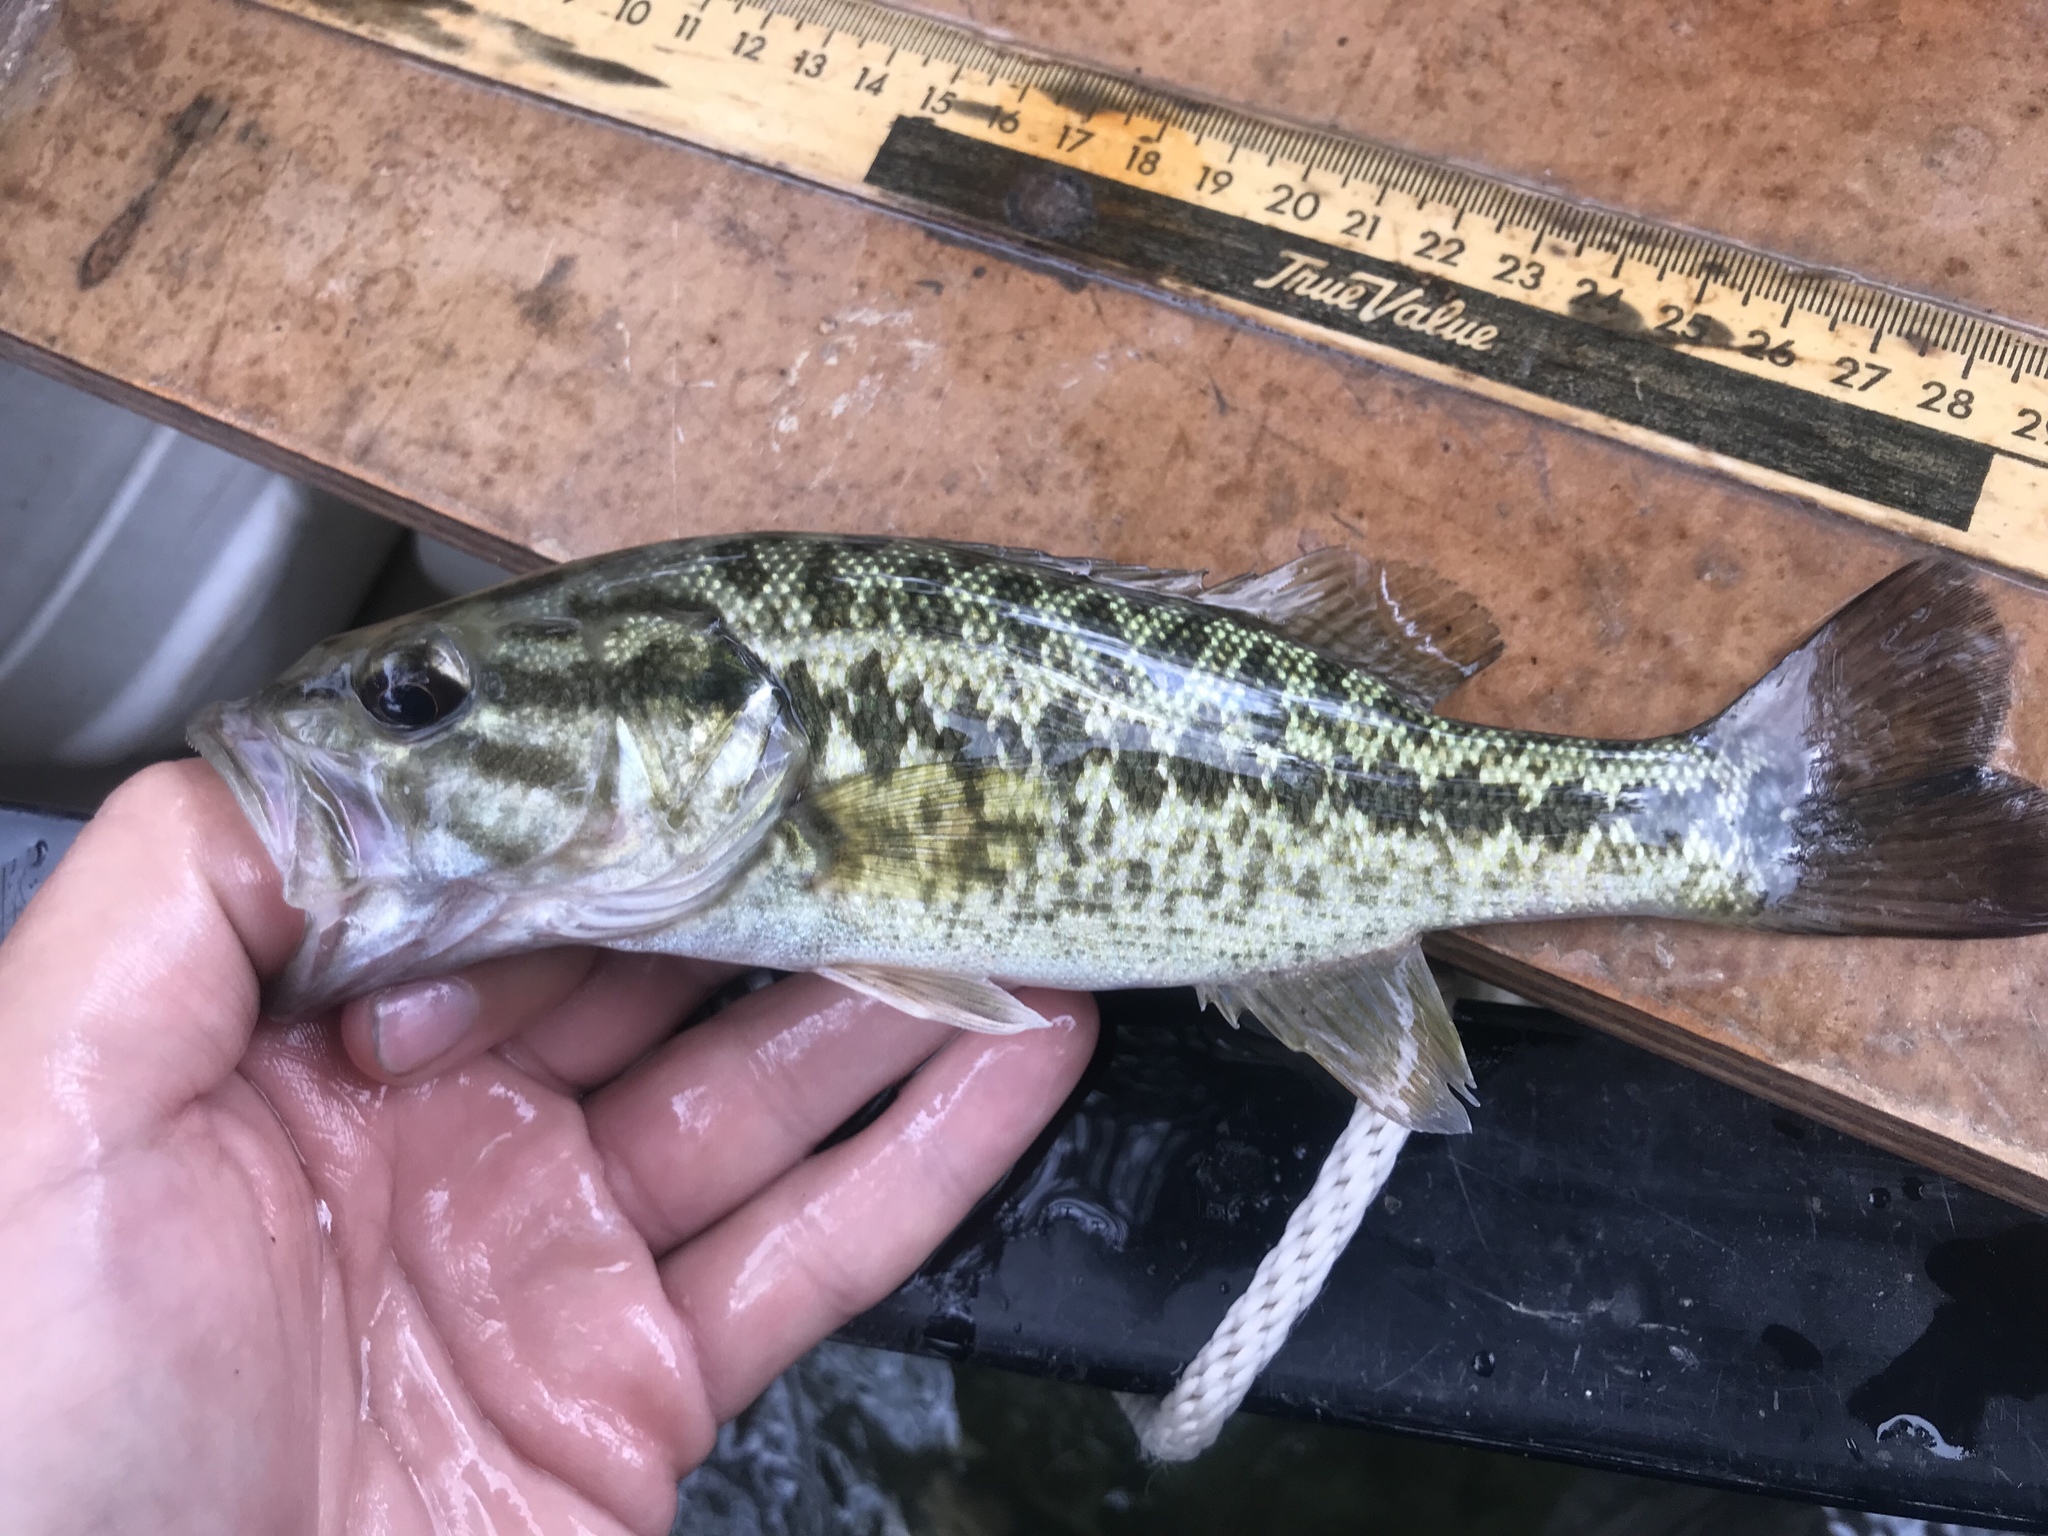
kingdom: Animalia
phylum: Chordata
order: Perciformes
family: Centrarchidae
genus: Micropterus
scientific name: Micropterus treculii
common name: Guadalupe bass
